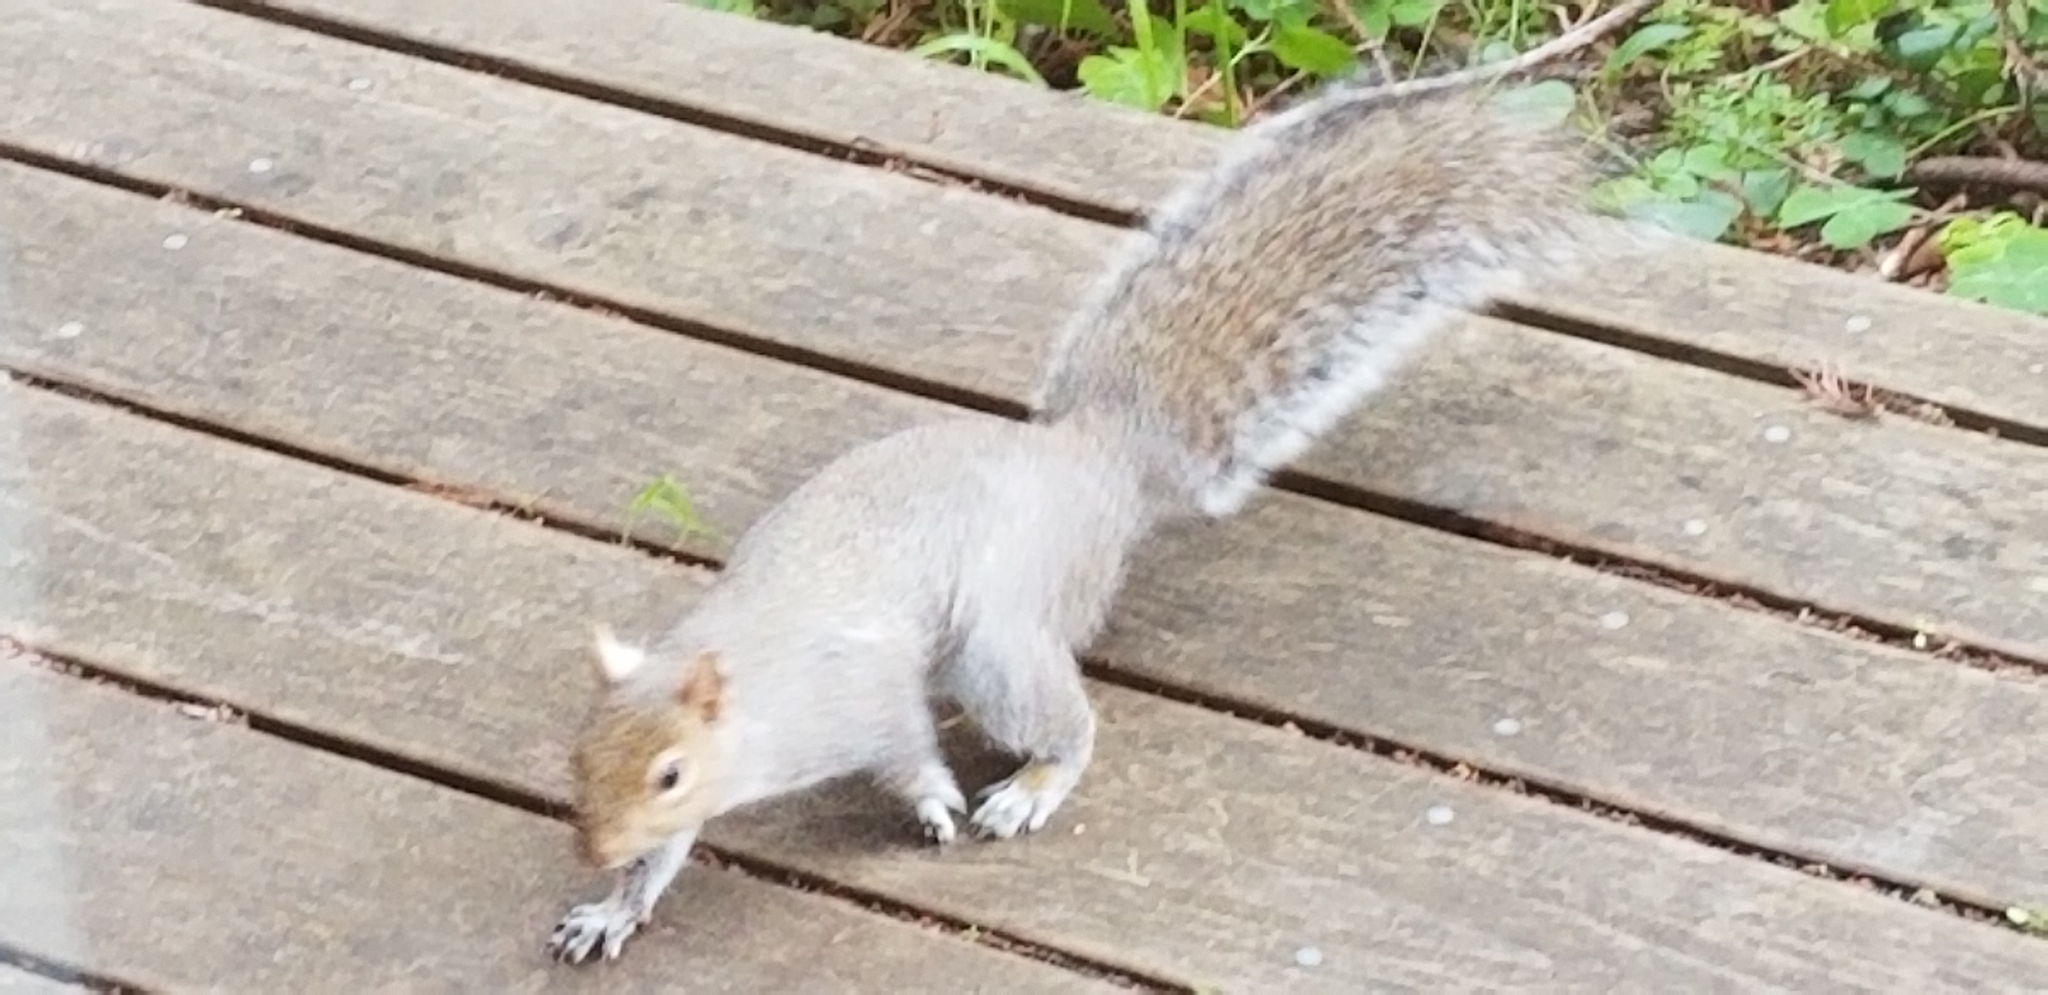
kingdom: Animalia
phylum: Chordata
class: Mammalia
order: Rodentia
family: Sciuridae
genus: Sciurus
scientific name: Sciurus carolinensis
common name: Eastern gray squirrel
